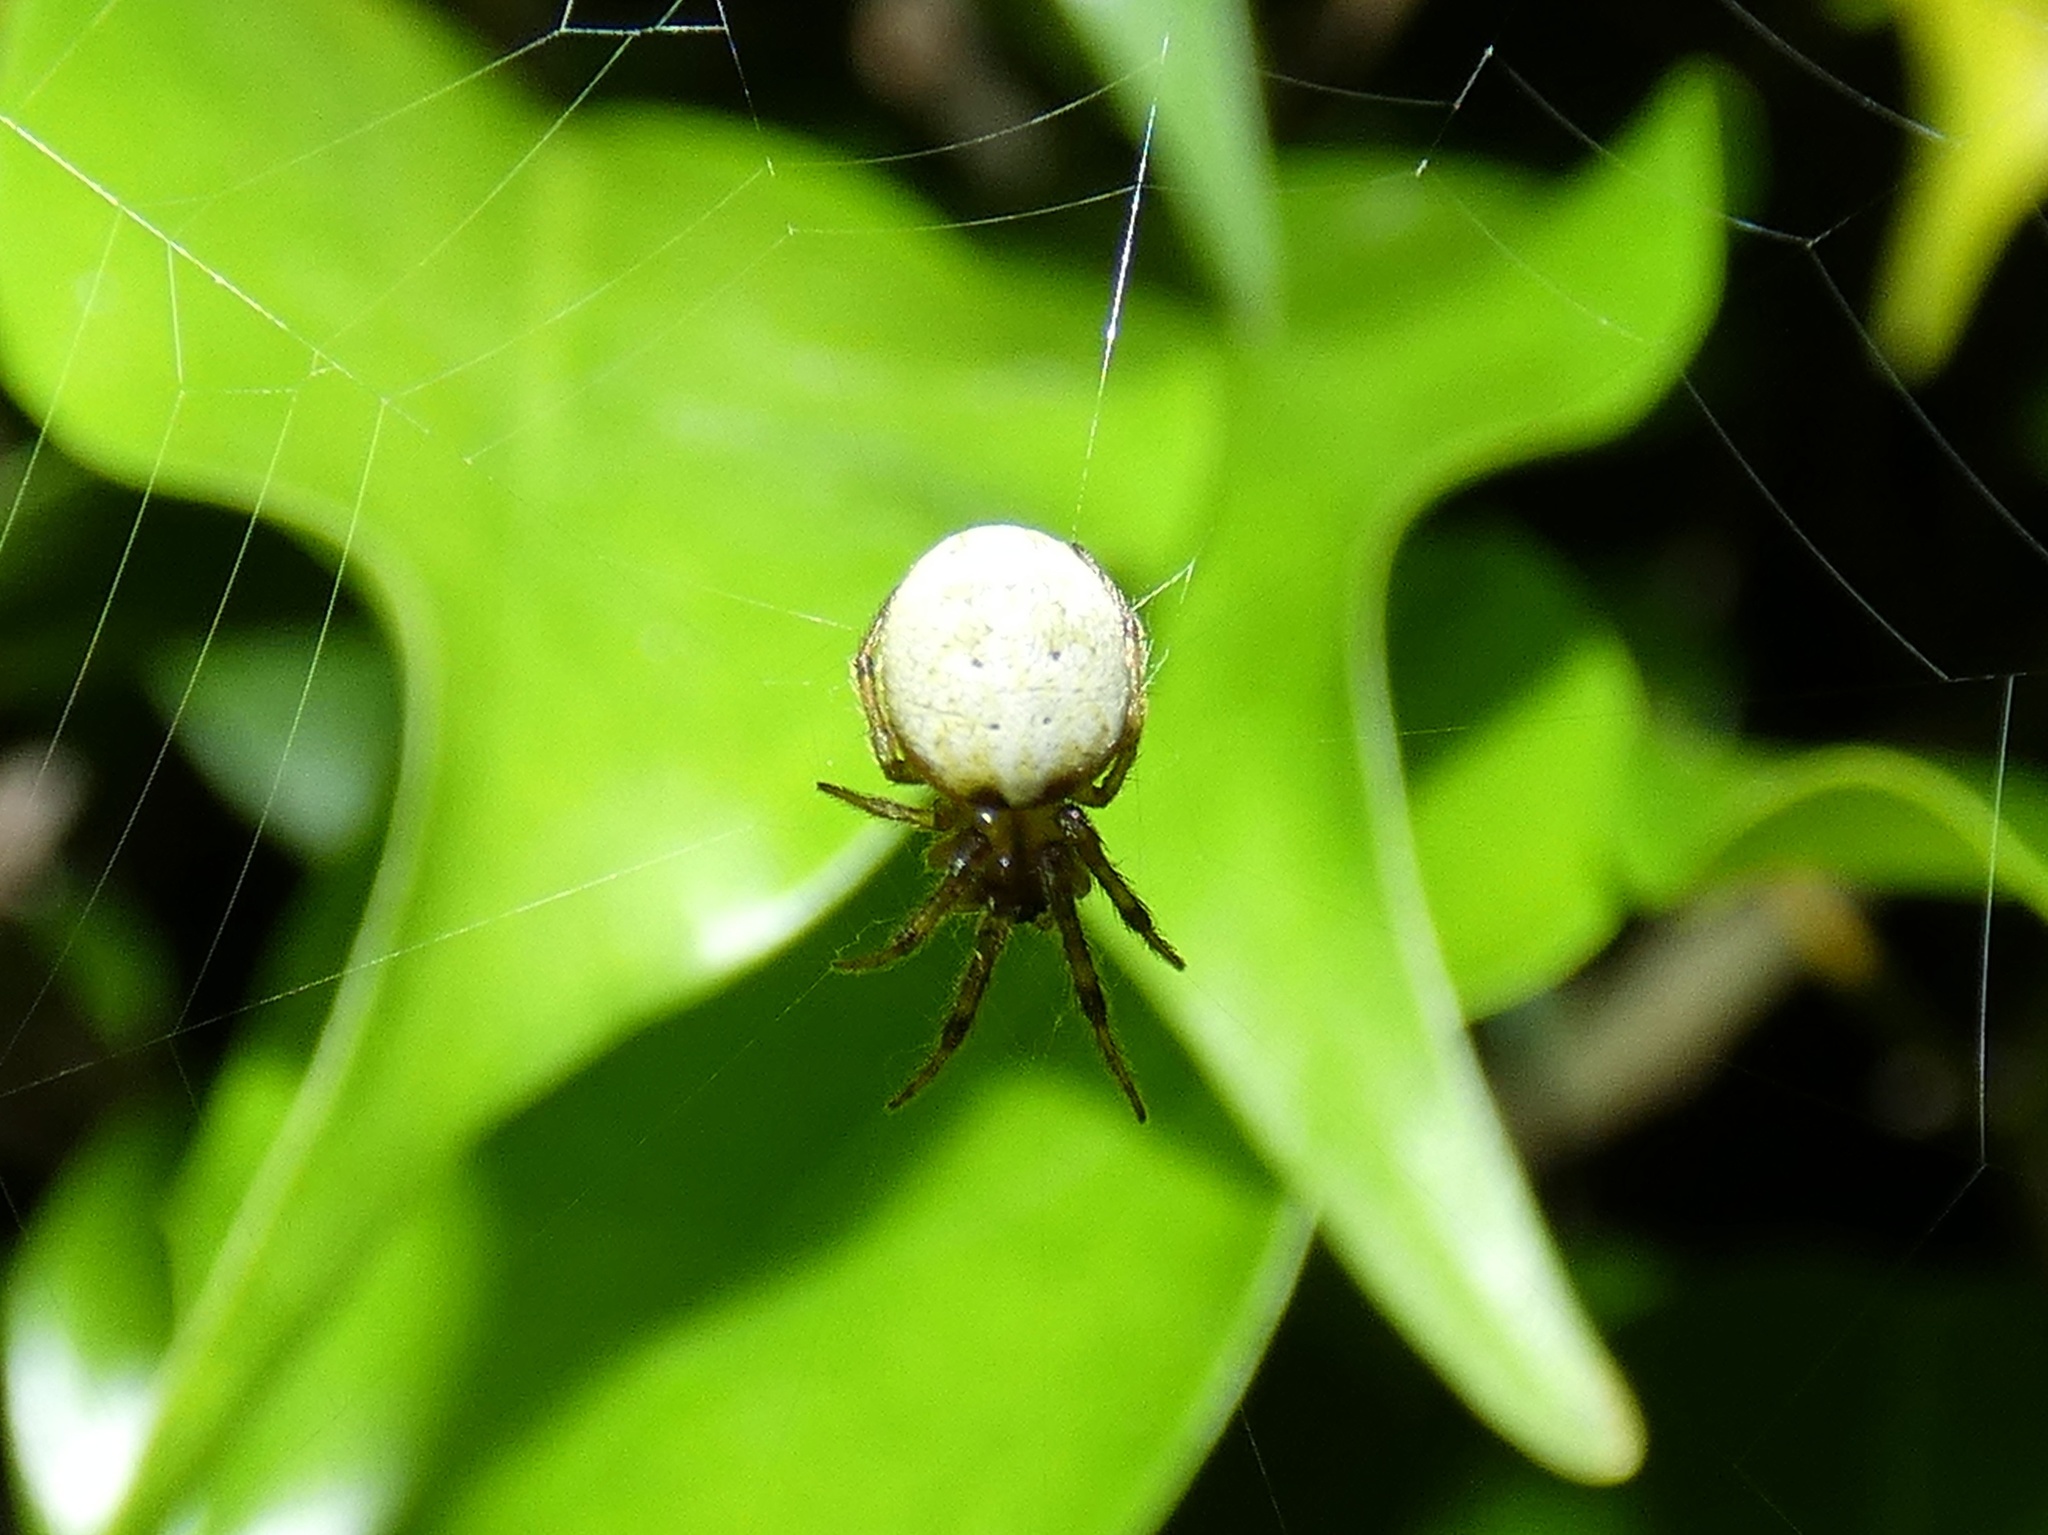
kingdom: Animalia
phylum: Arthropoda
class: Arachnida
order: Araneae
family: Araneidae
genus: Metazygia
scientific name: Metazygia zilloides
